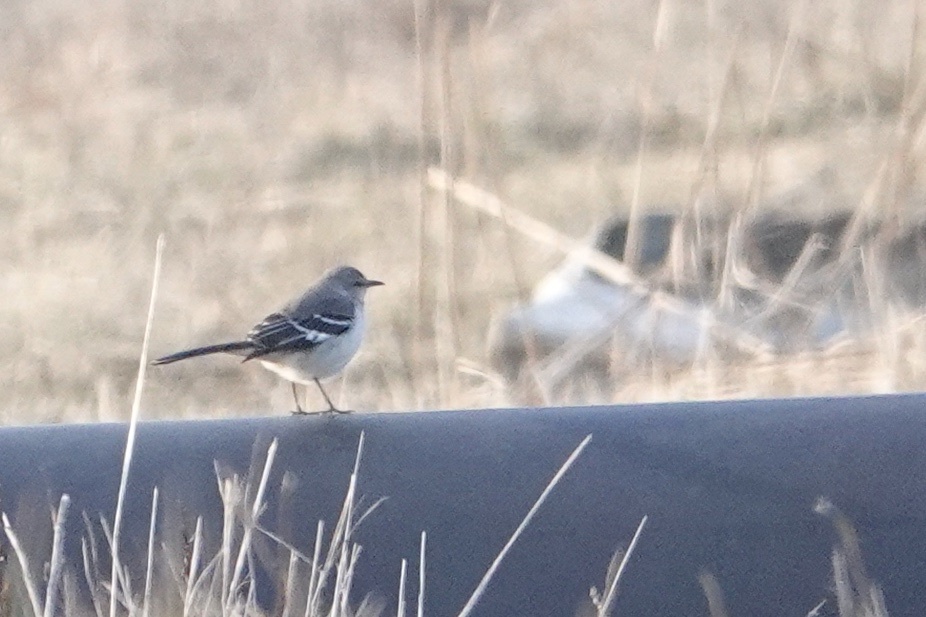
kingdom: Animalia
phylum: Chordata
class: Aves
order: Passeriformes
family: Mimidae
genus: Mimus
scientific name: Mimus polyglottos
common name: Northern mockingbird
